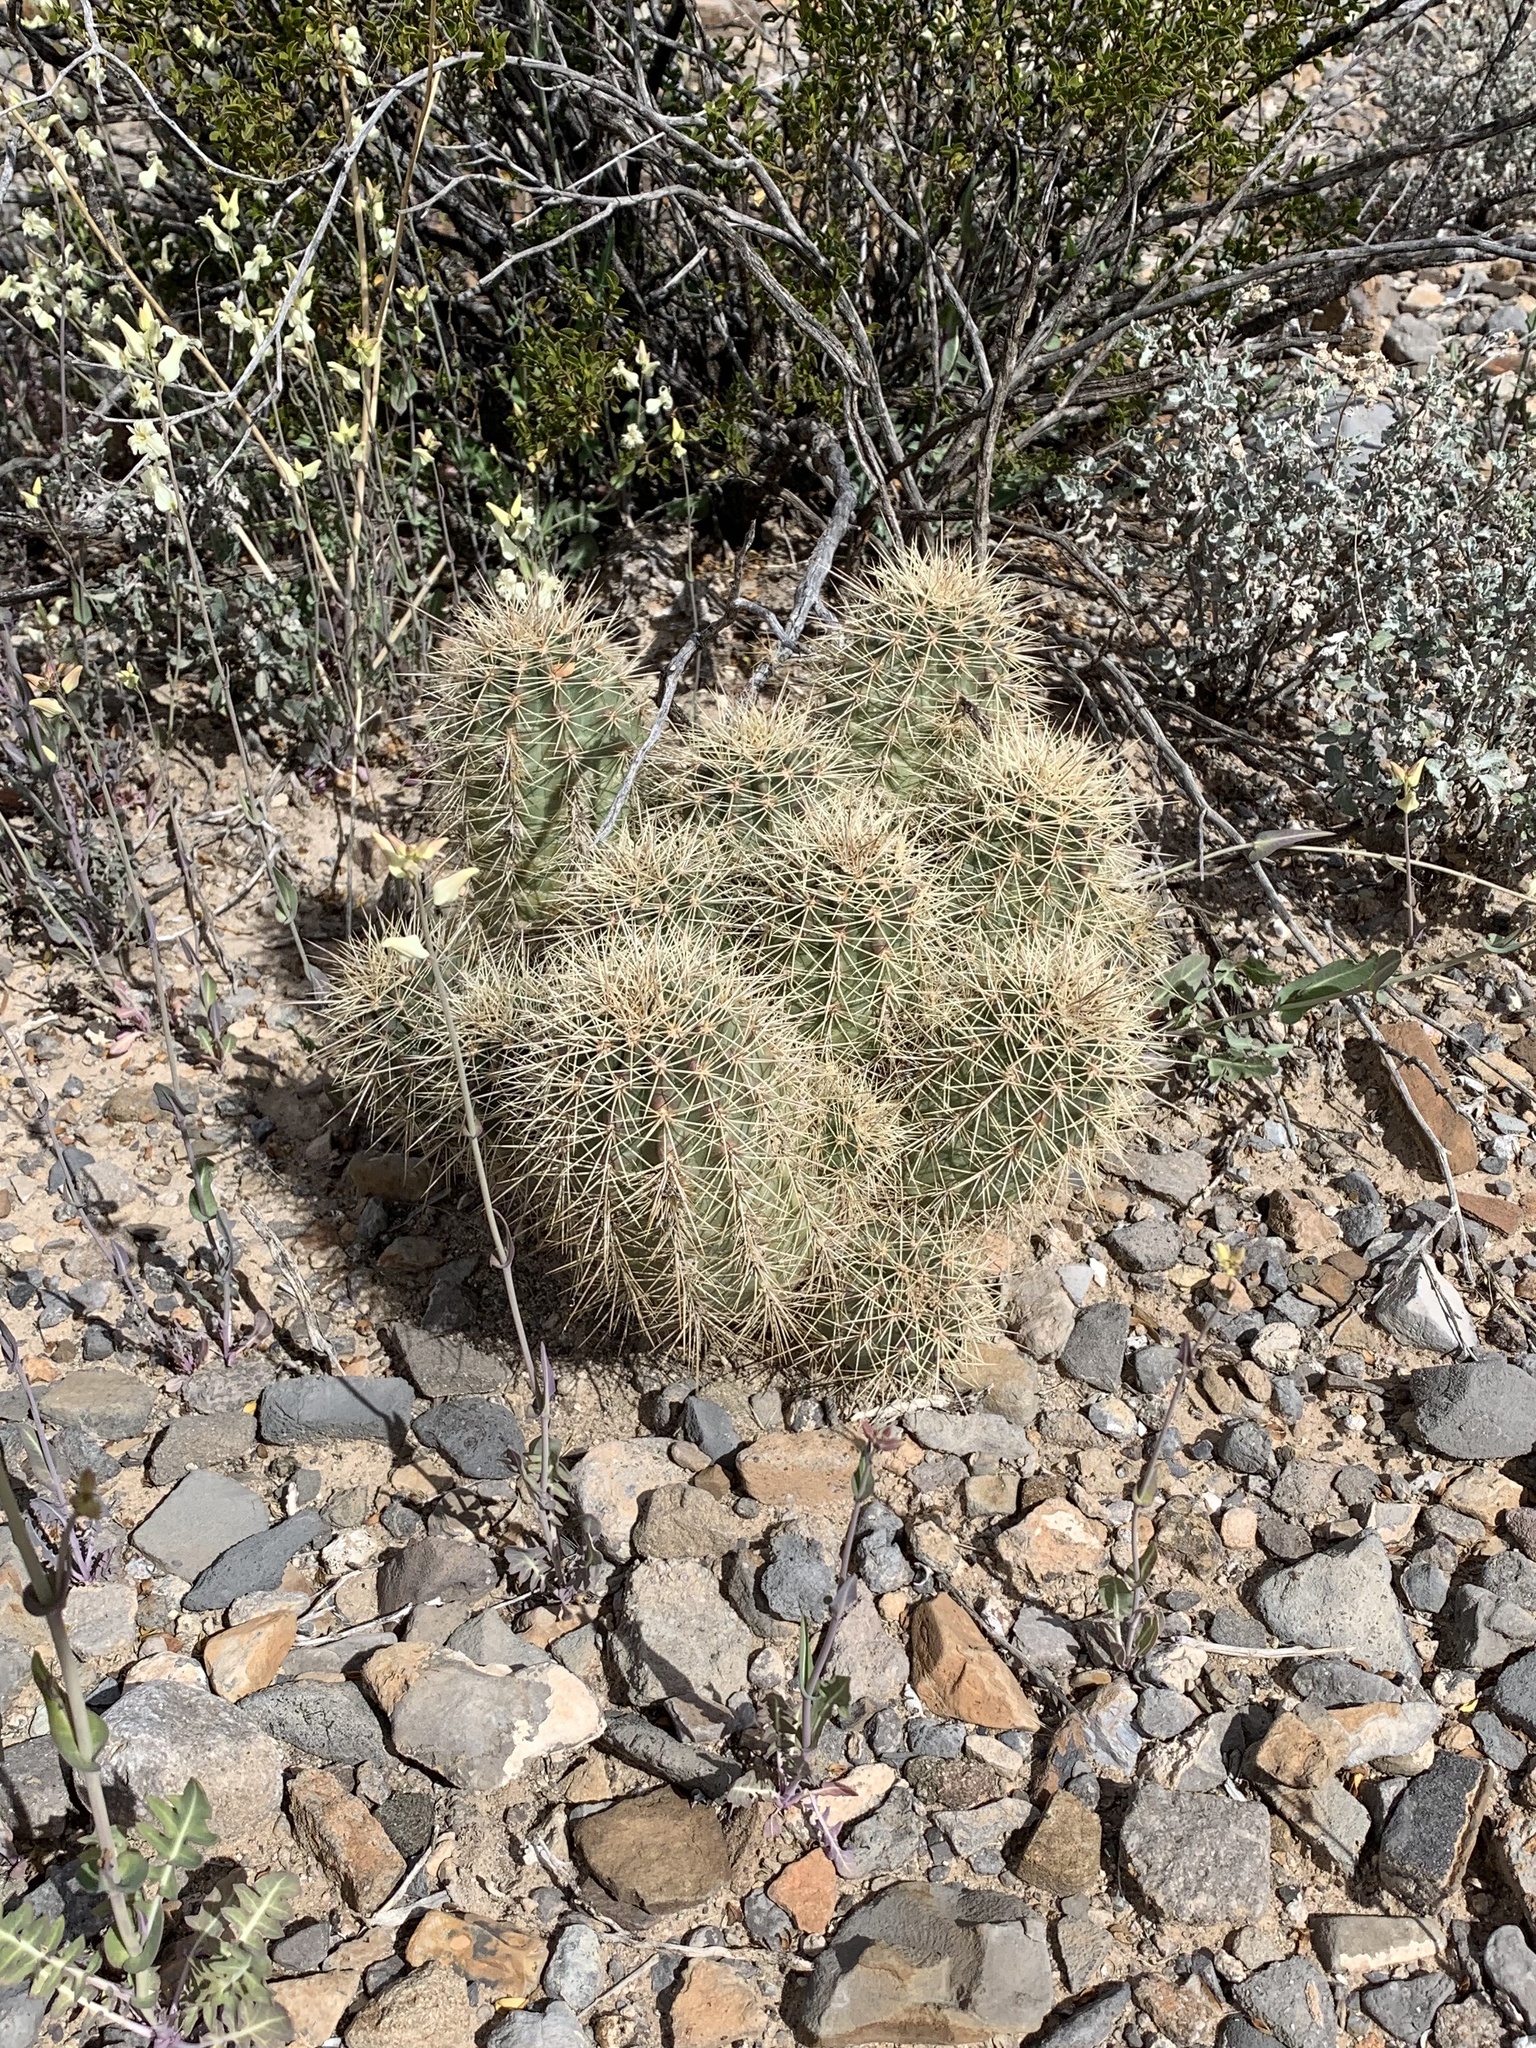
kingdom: Plantae
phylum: Tracheophyta
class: Magnoliopsida
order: Caryophyllales
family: Cactaceae
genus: Echinocereus
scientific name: Echinocereus coccineus
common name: Scarlet hedgehog cactus
